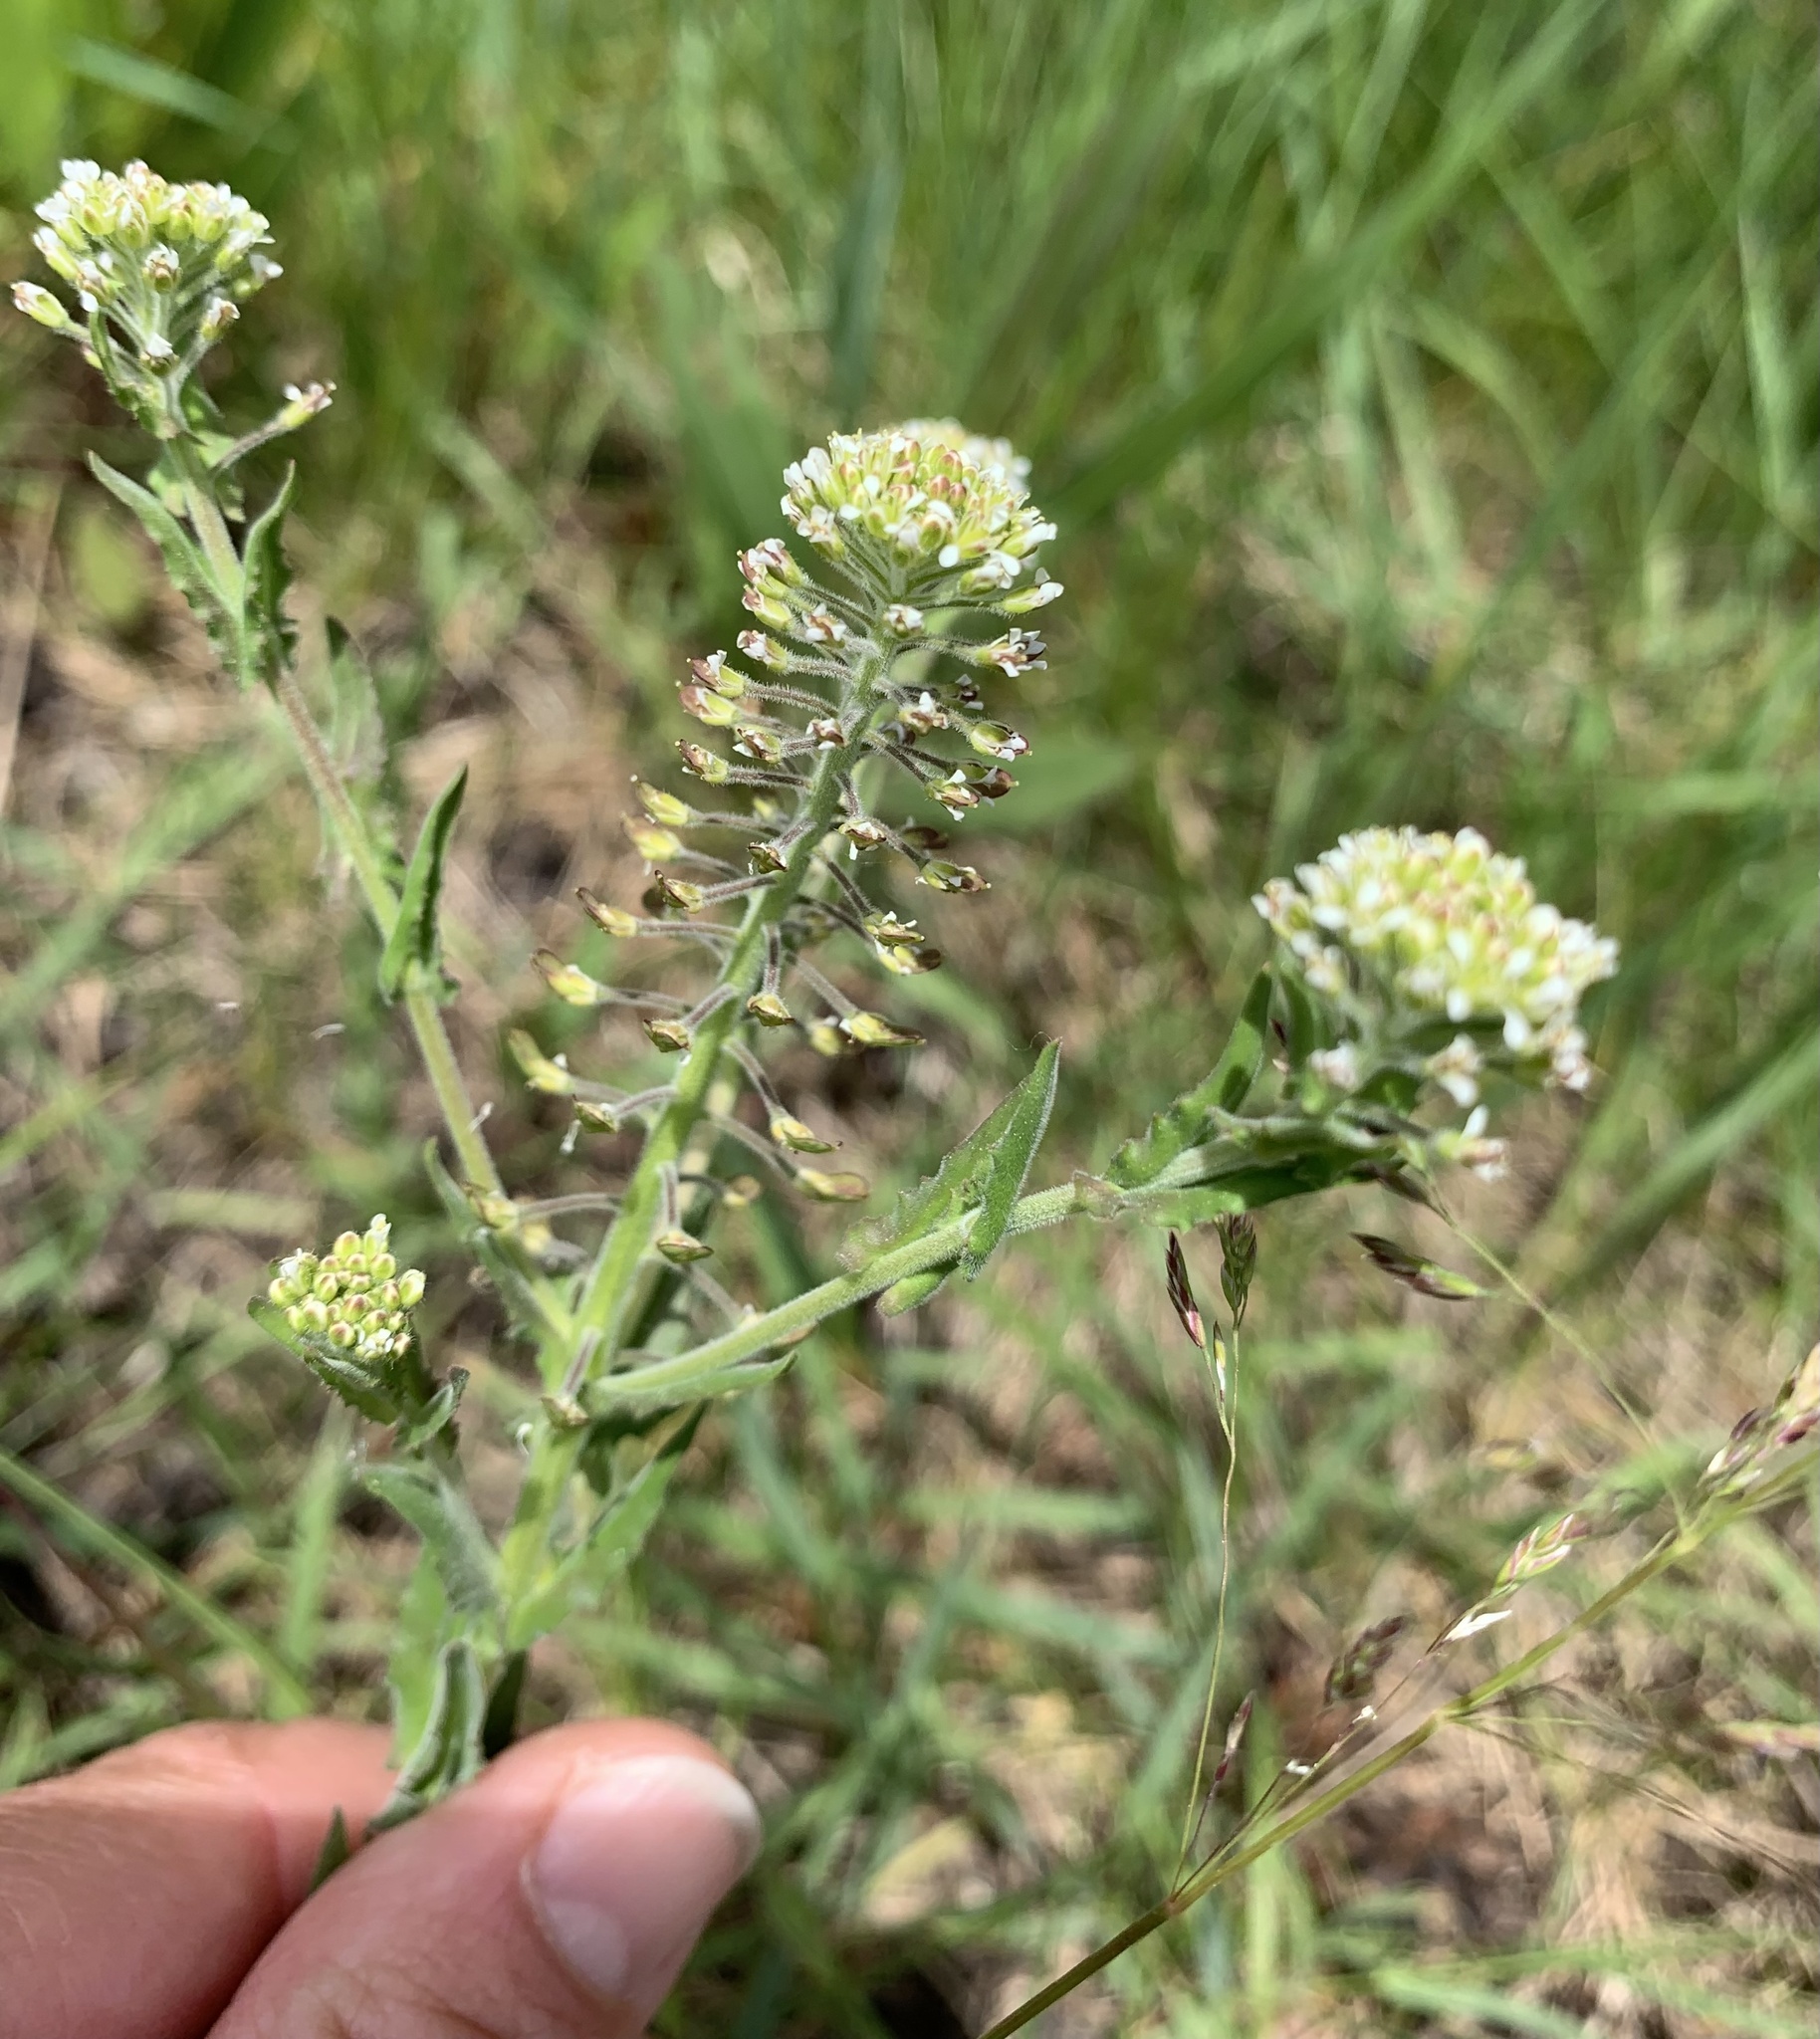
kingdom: Plantae
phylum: Tracheophyta
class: Magnoliopsida
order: Brassicales
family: Brassicaceae
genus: Lepidium
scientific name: Lepidium campestre
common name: Field pepperwort
